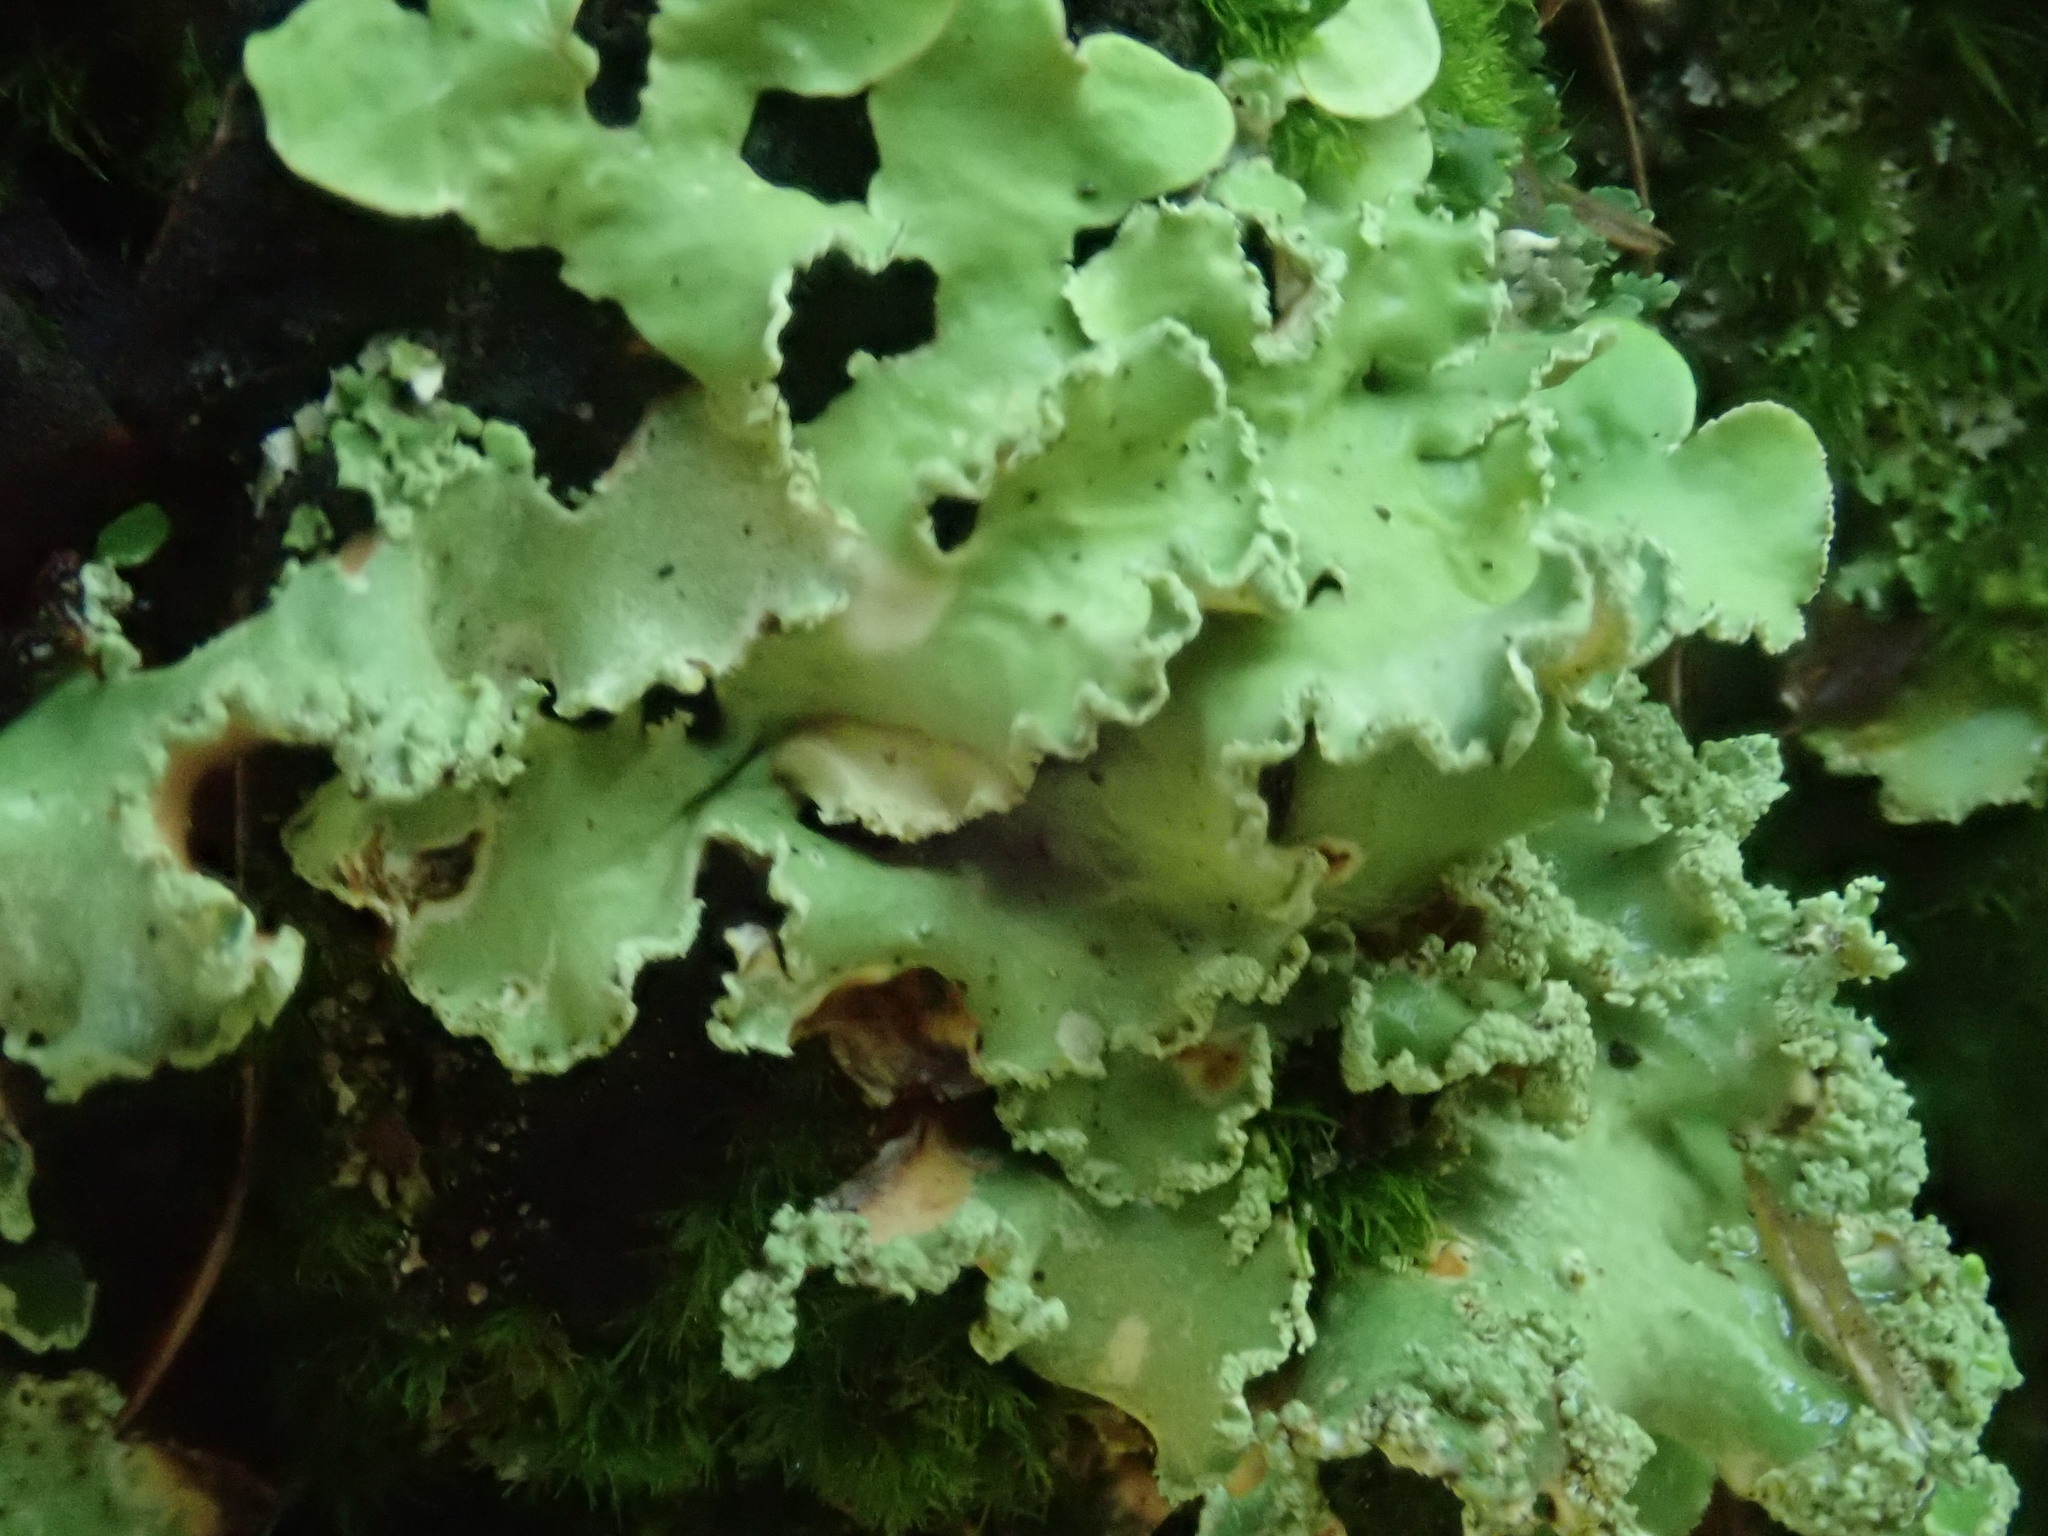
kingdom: Fungi
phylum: Ascomycota
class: Lecanoromycetes
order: Lecanorales
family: Parmeliaceae
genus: Usnocetraria
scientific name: Usnocetraria oakesiana
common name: Yellow ribbon lichen
